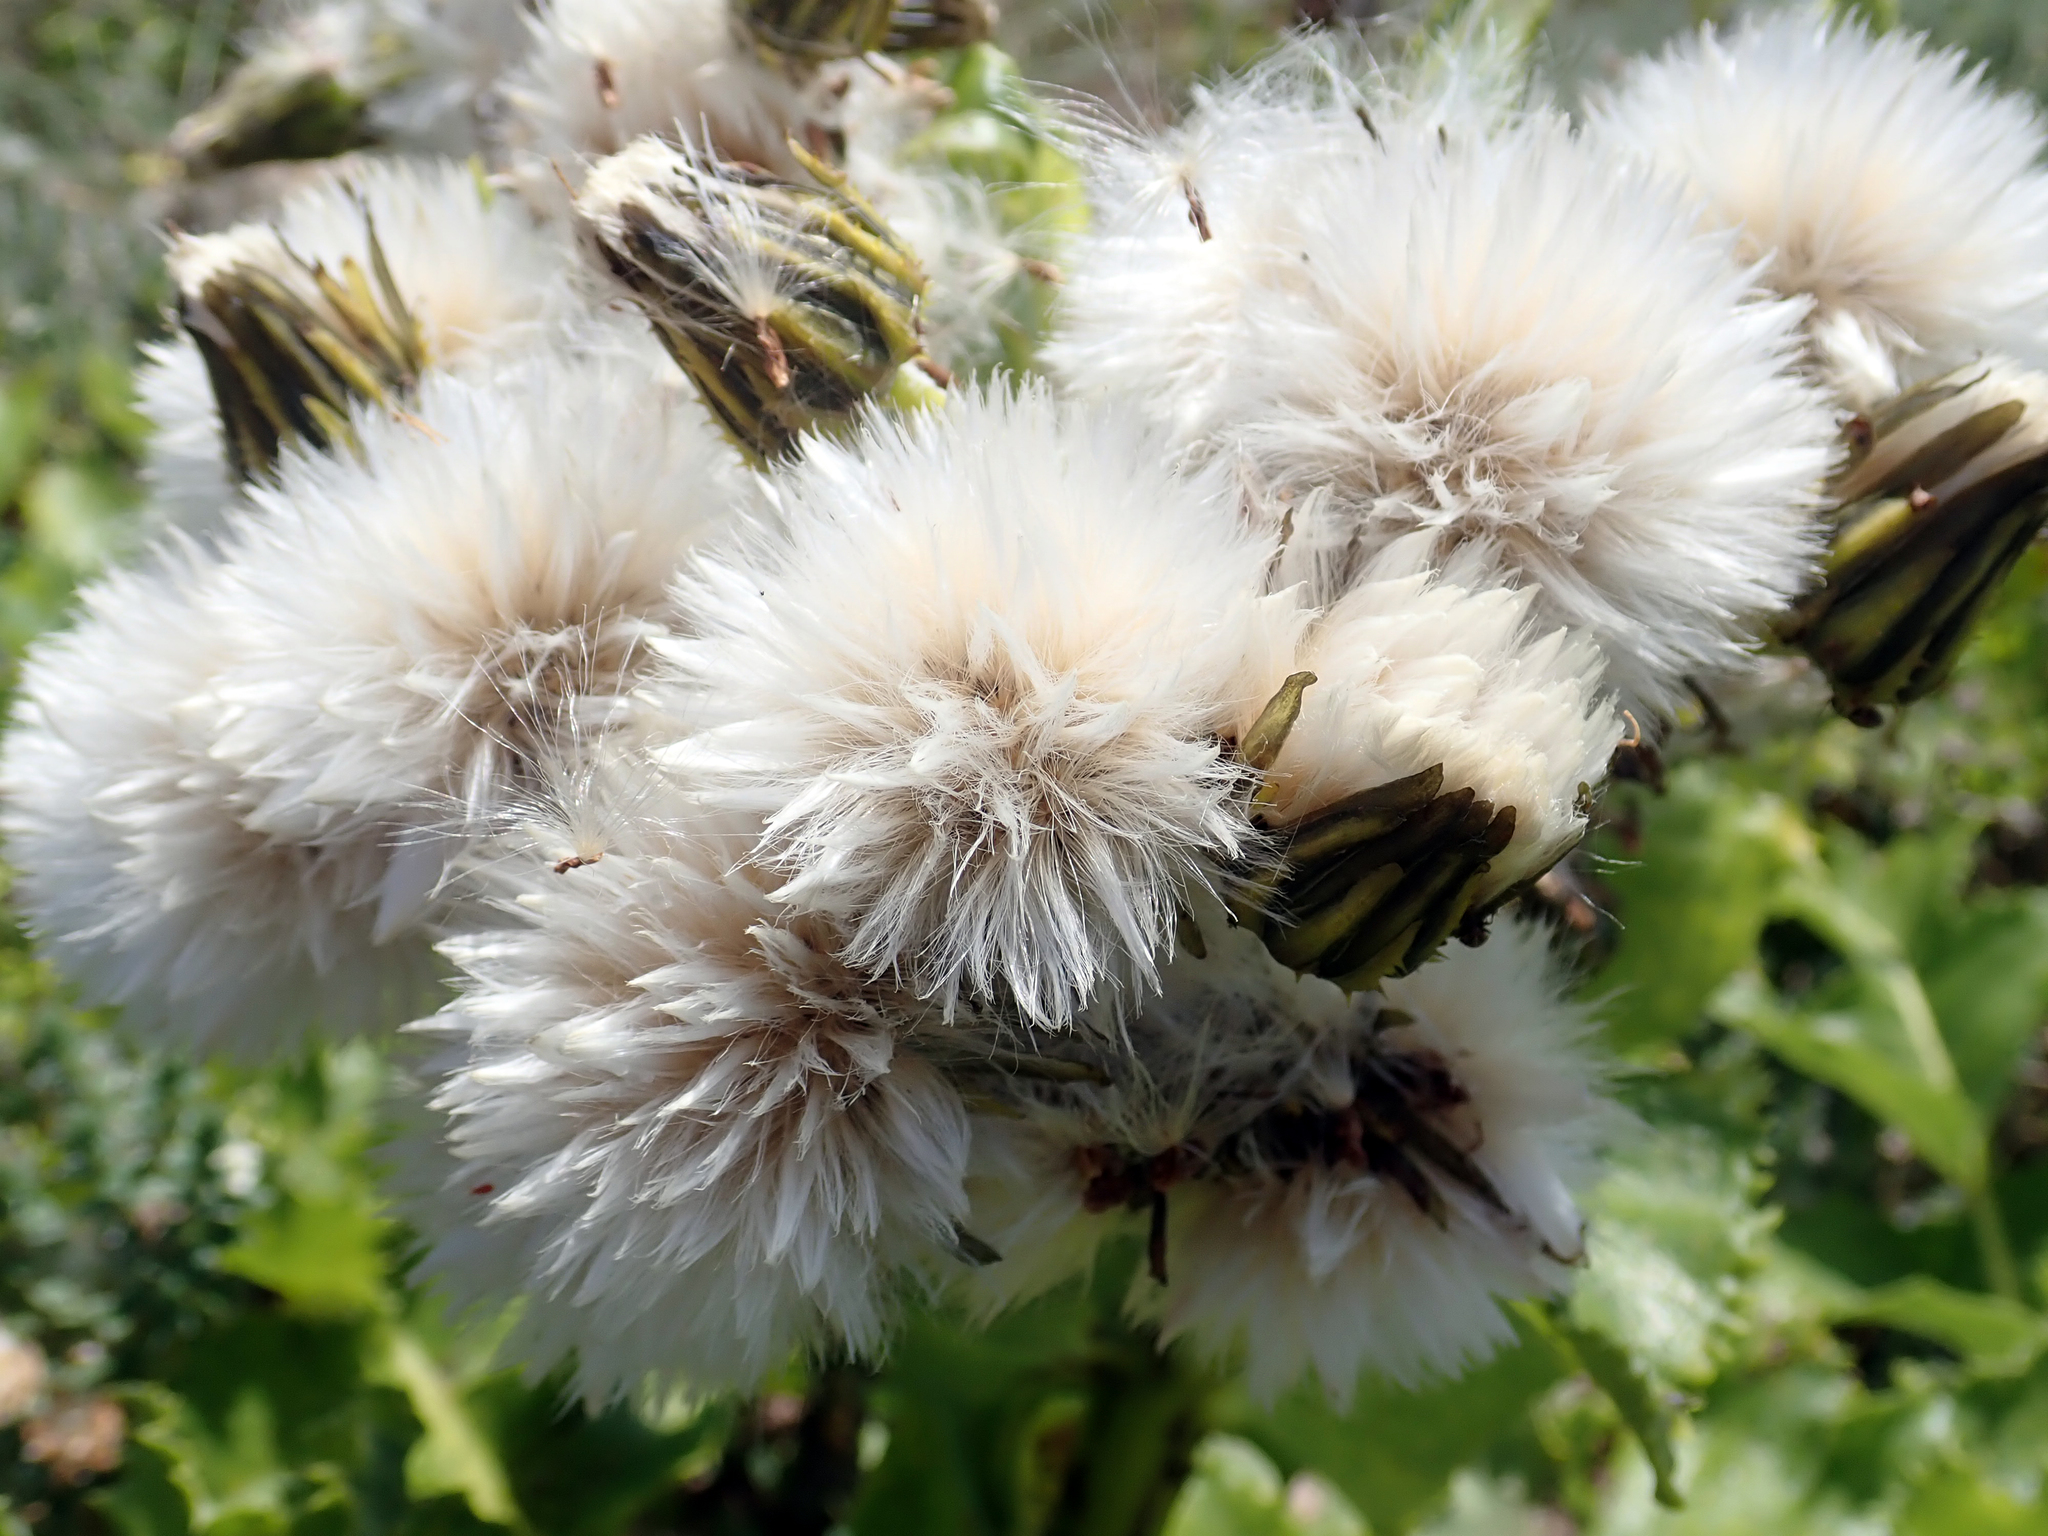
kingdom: Plantae
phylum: Tracheophyta
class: Magnoliopsida
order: Asterales
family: Asteraceae
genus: Sonchus
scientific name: Sonchus grandifolius
